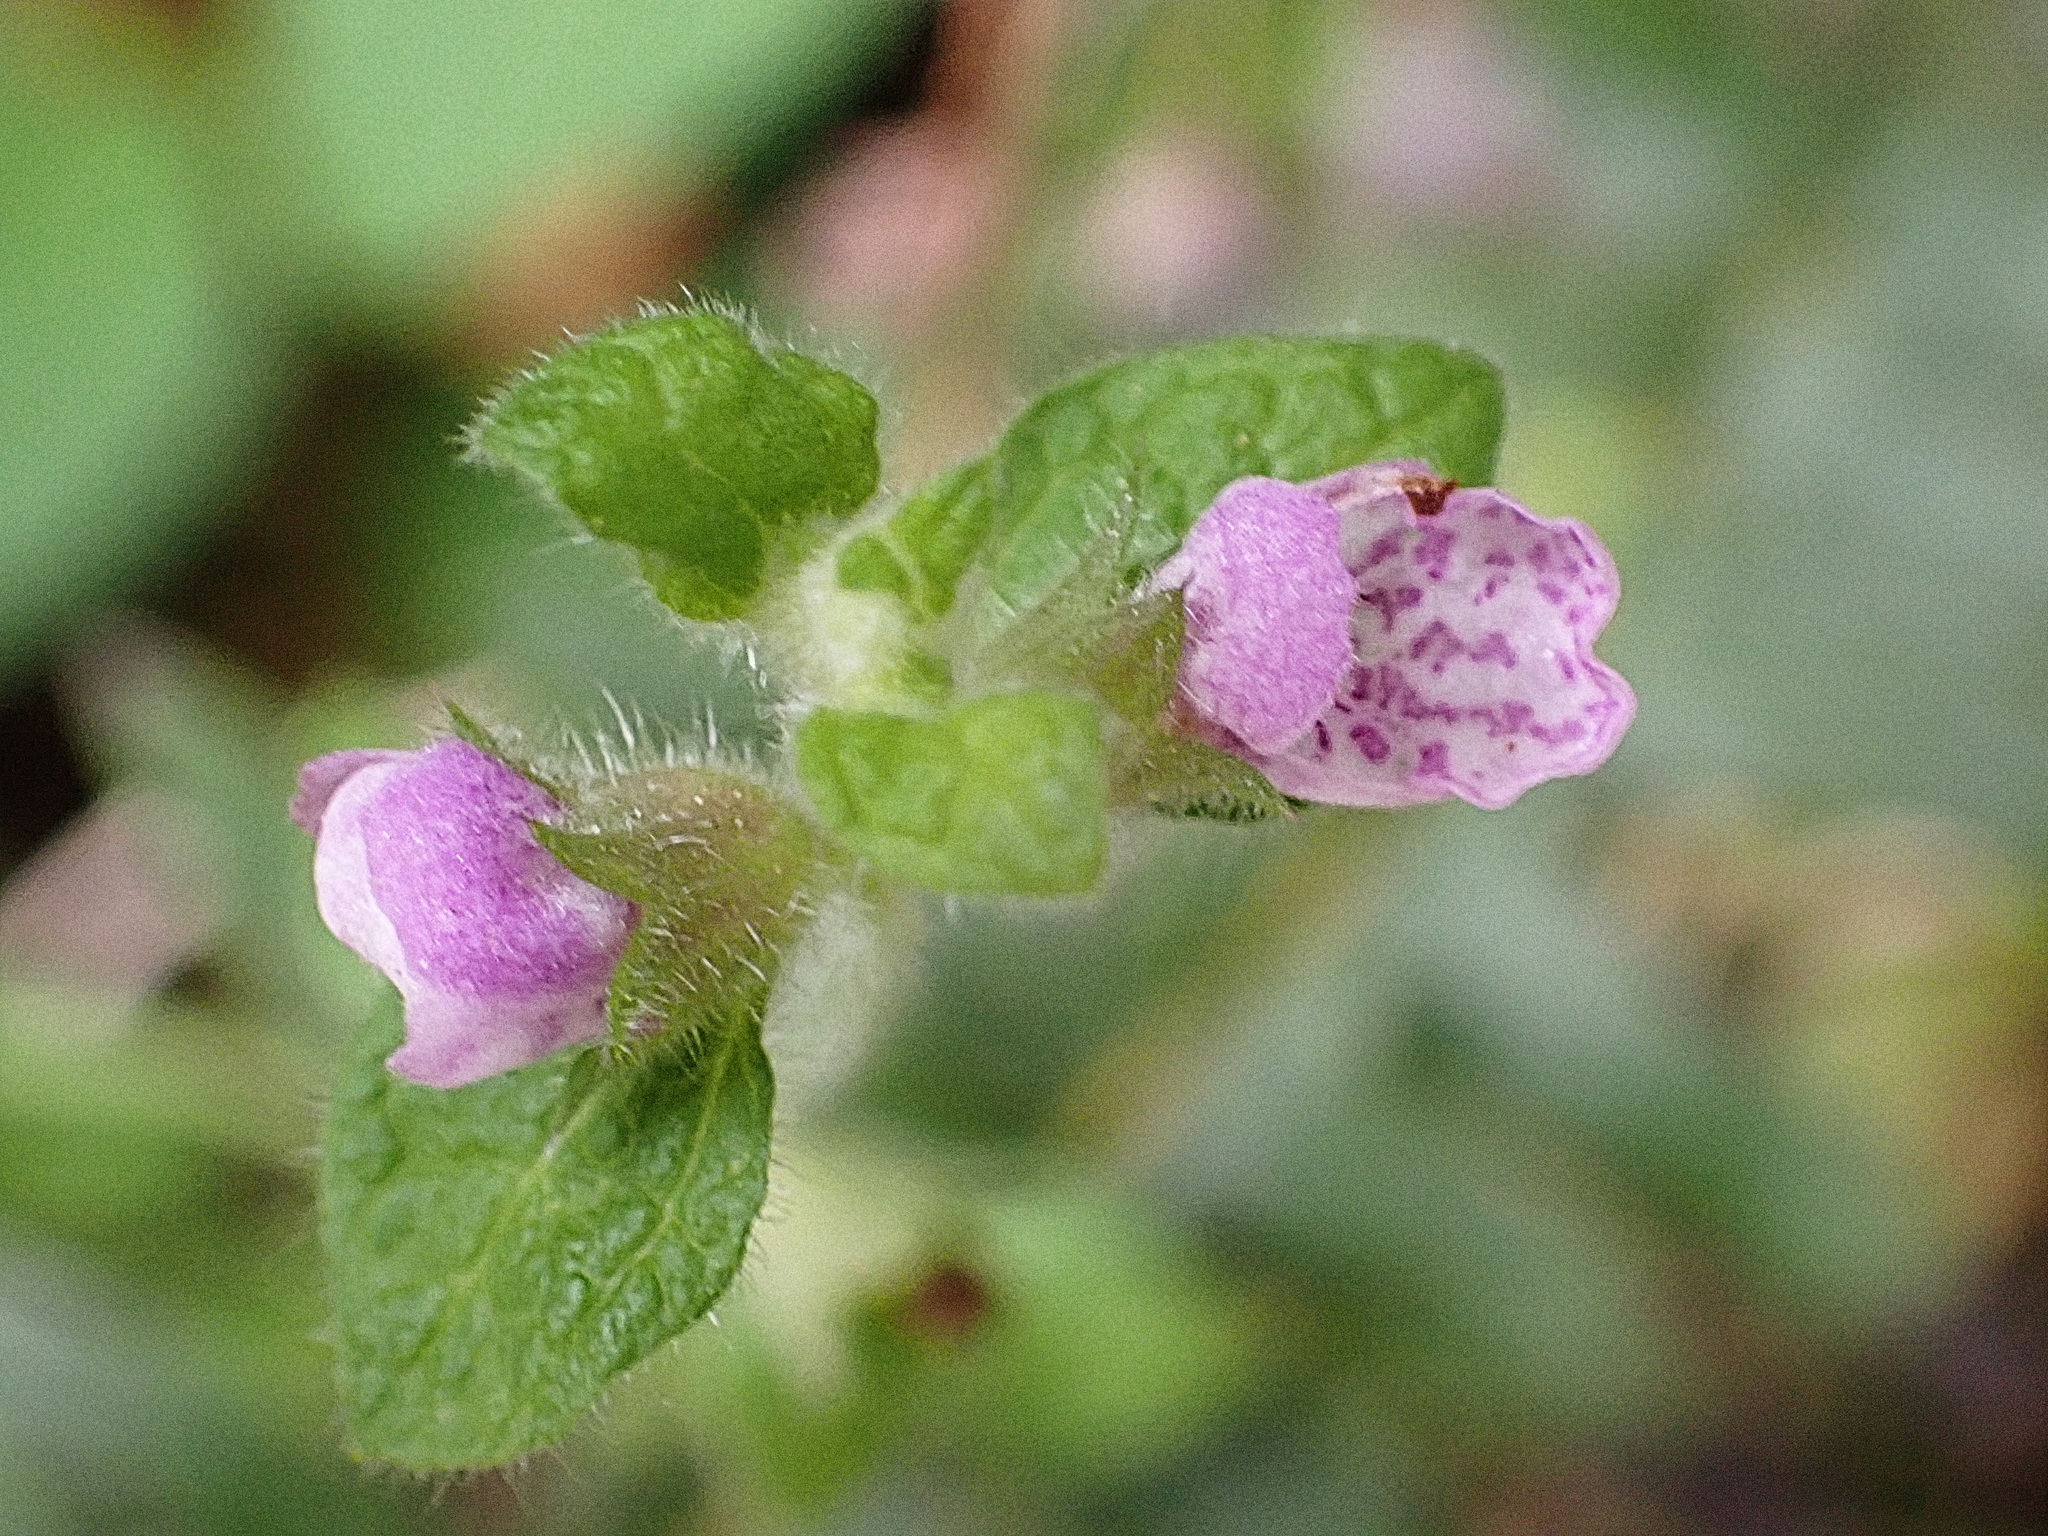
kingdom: Plantae
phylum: Tracheophyta
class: Magnoliopsida
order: Lamiales
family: Lamiaceae
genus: Pseudodictamnus
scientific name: Pseudodictamnus africanus
